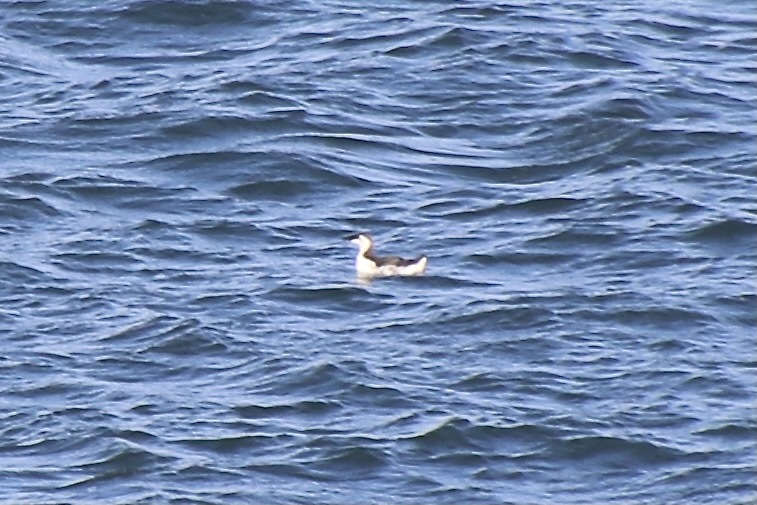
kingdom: Animalia
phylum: Chordata
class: Aves
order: Charadriiformes
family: Alcidae
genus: Uria
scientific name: Uria aalge
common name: Common murre
